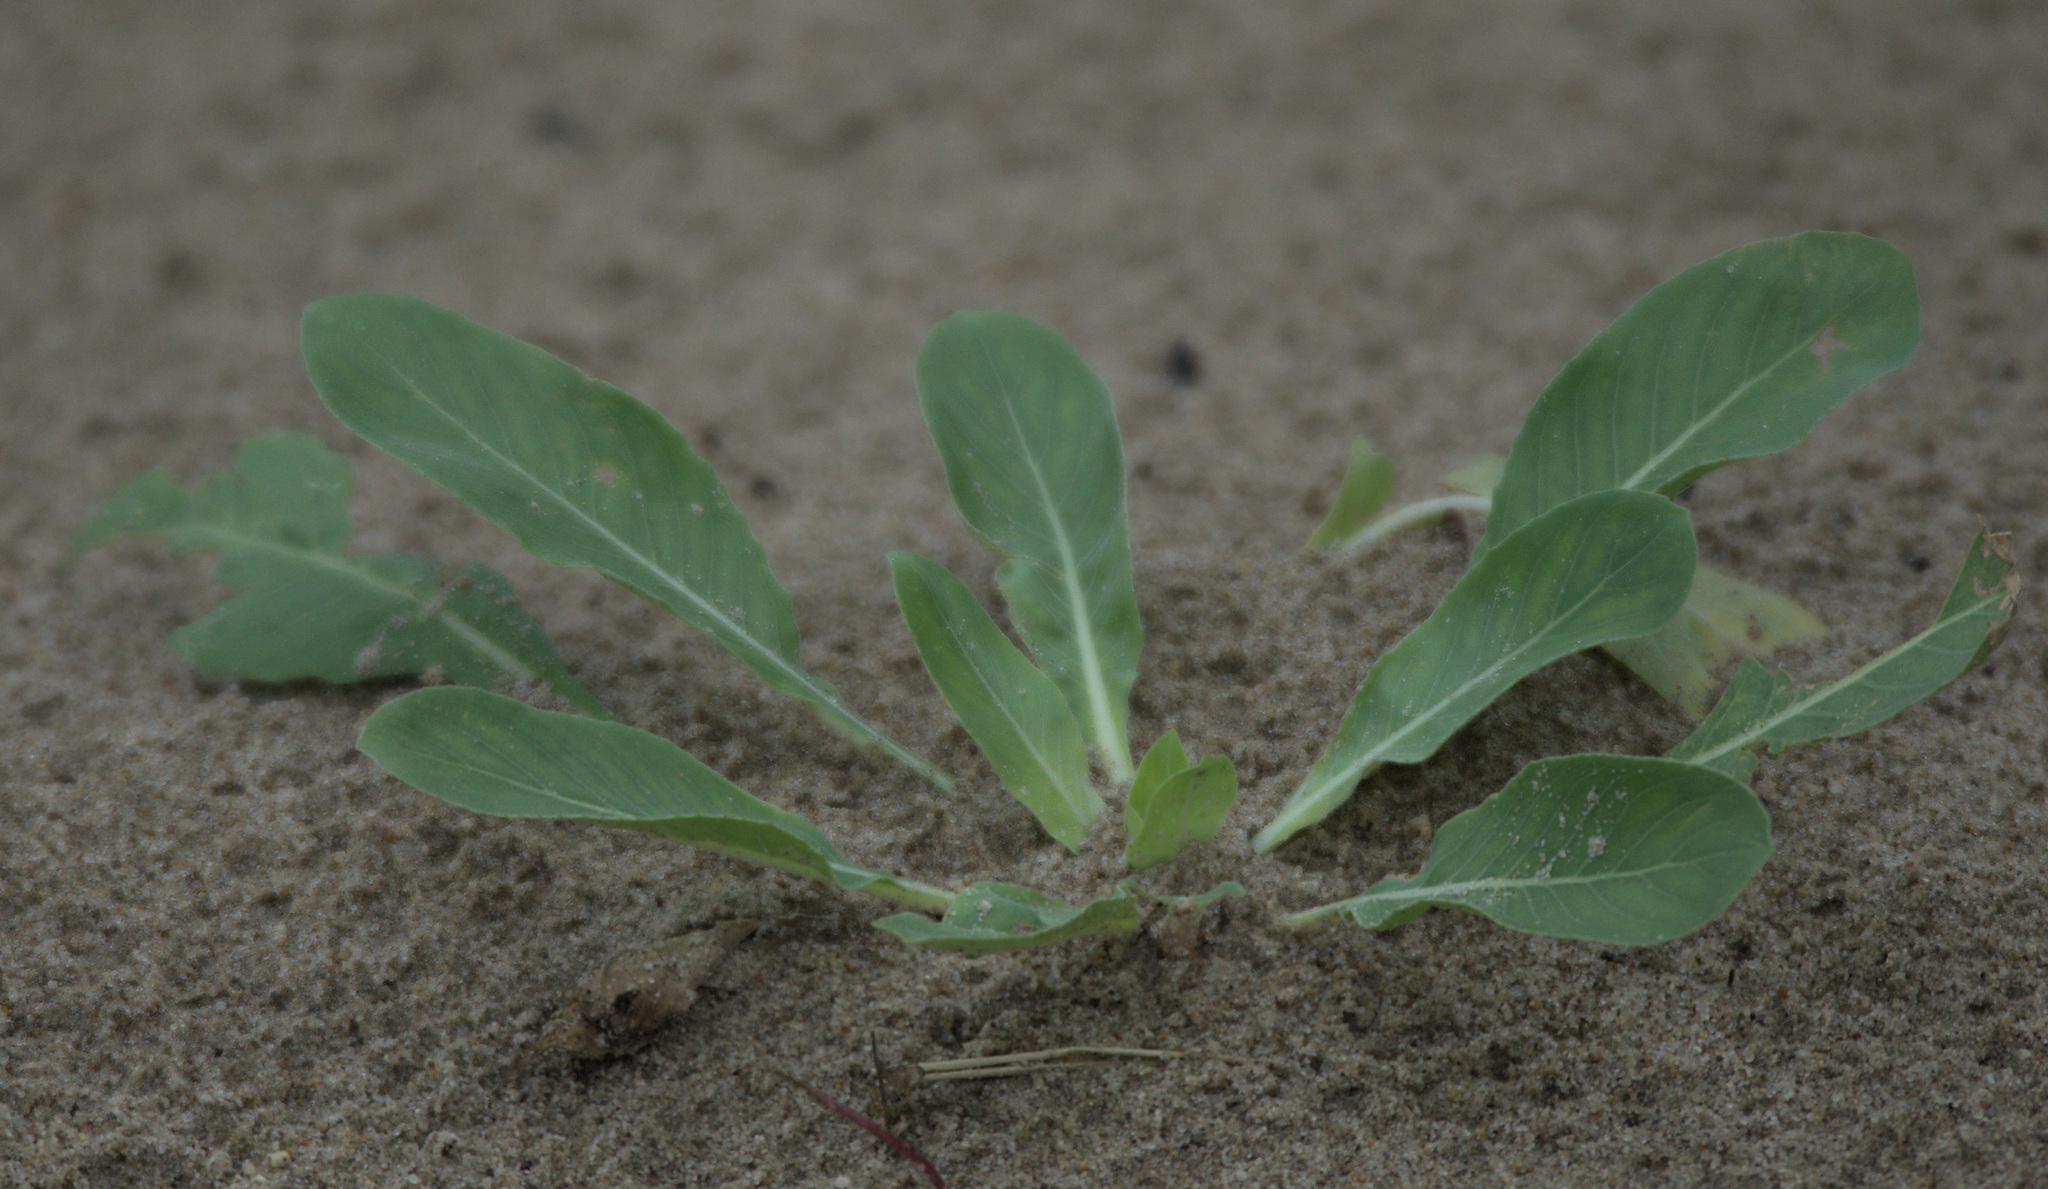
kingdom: Plantae
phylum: Tracheophyta
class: Magnoliopsida
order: Myrtales
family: Onagraceae
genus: Oenothera
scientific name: Oenothera
